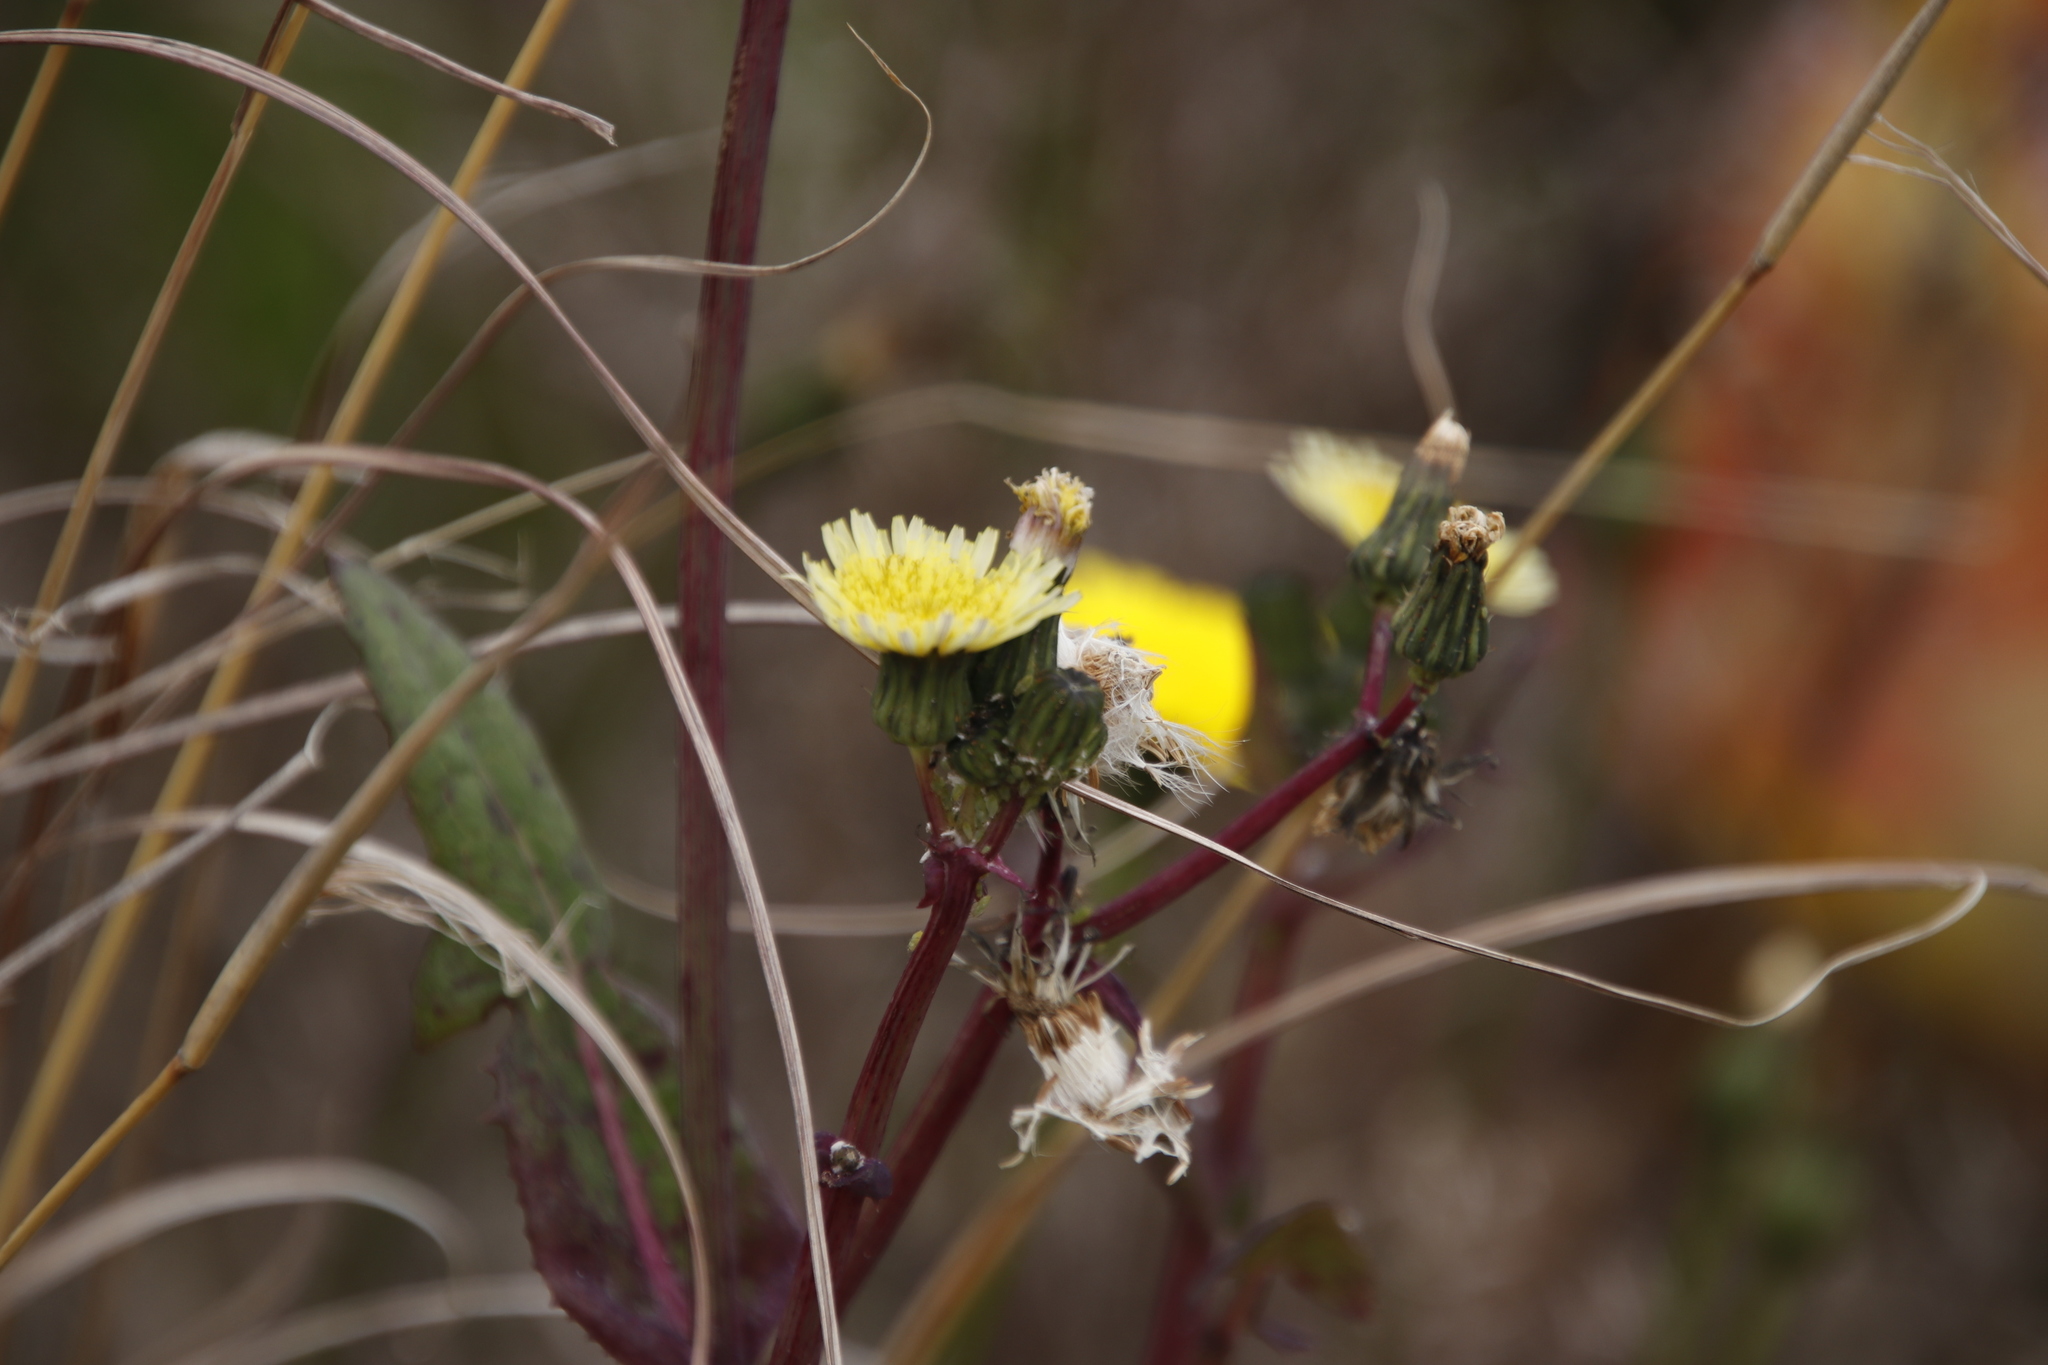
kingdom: Plantae
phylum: Tracheophyta
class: Magnoliopsida
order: Asterales
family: Asteraceae
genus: Sonchus
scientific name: Sonchus oleraceus
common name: Common sowthistle
